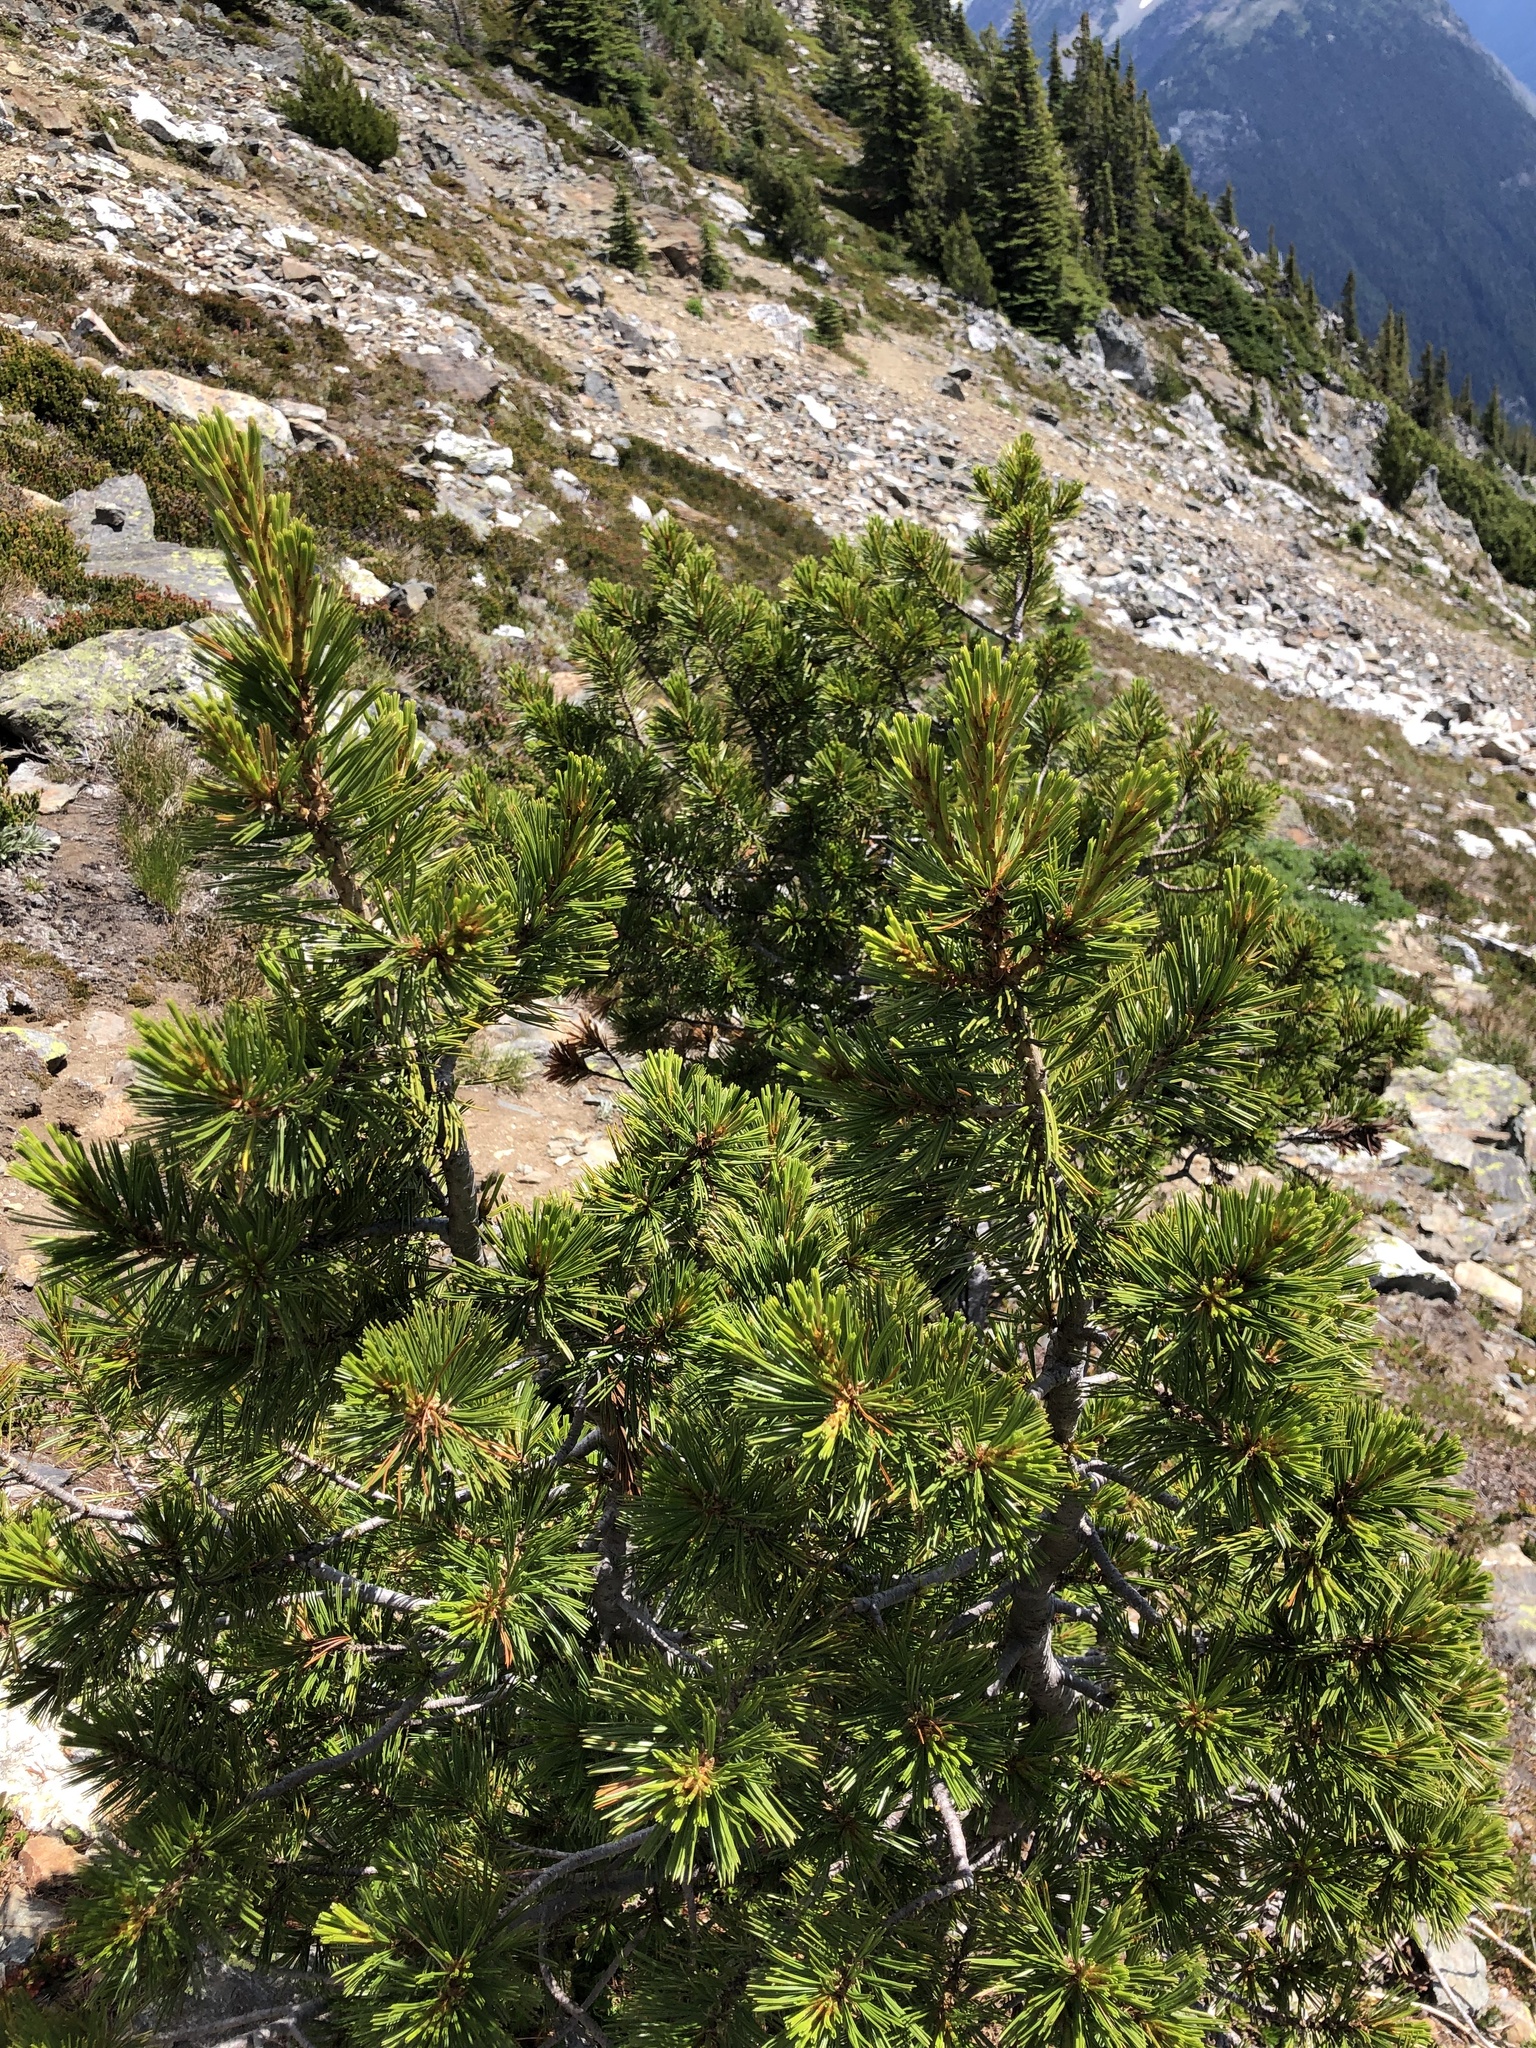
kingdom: Plantae
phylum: Tracheophyta
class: Pinopsida
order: Pinales
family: Pinaceae
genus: Pinus
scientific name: Pinus albicaulis
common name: Whitebark pine
